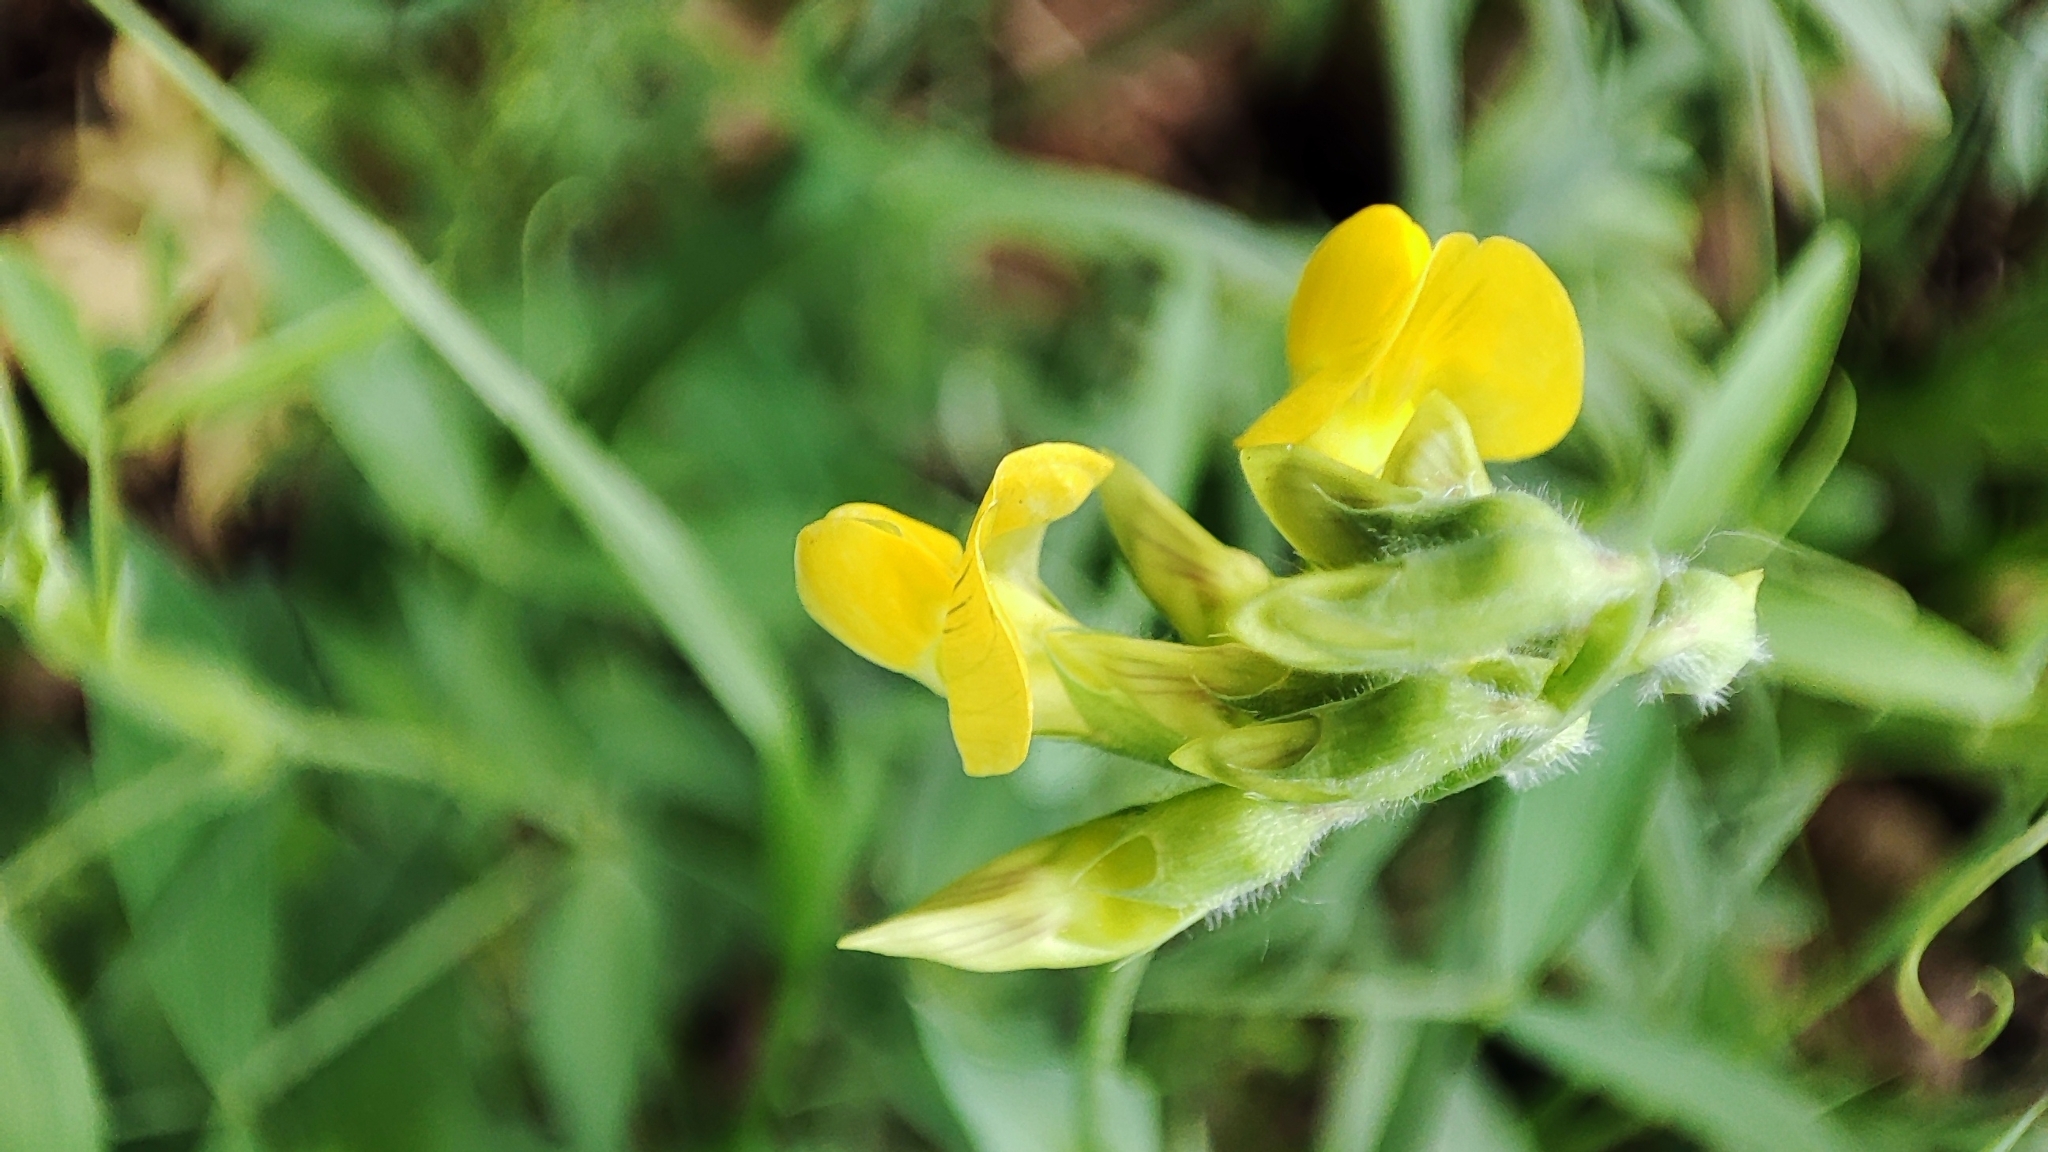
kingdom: Plantae
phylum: Tracheophyta
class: Magnoliopsida
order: Fabales
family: Fabaceae
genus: Lathyrus
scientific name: Lathyrus pratensis
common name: Meadow vetchling
